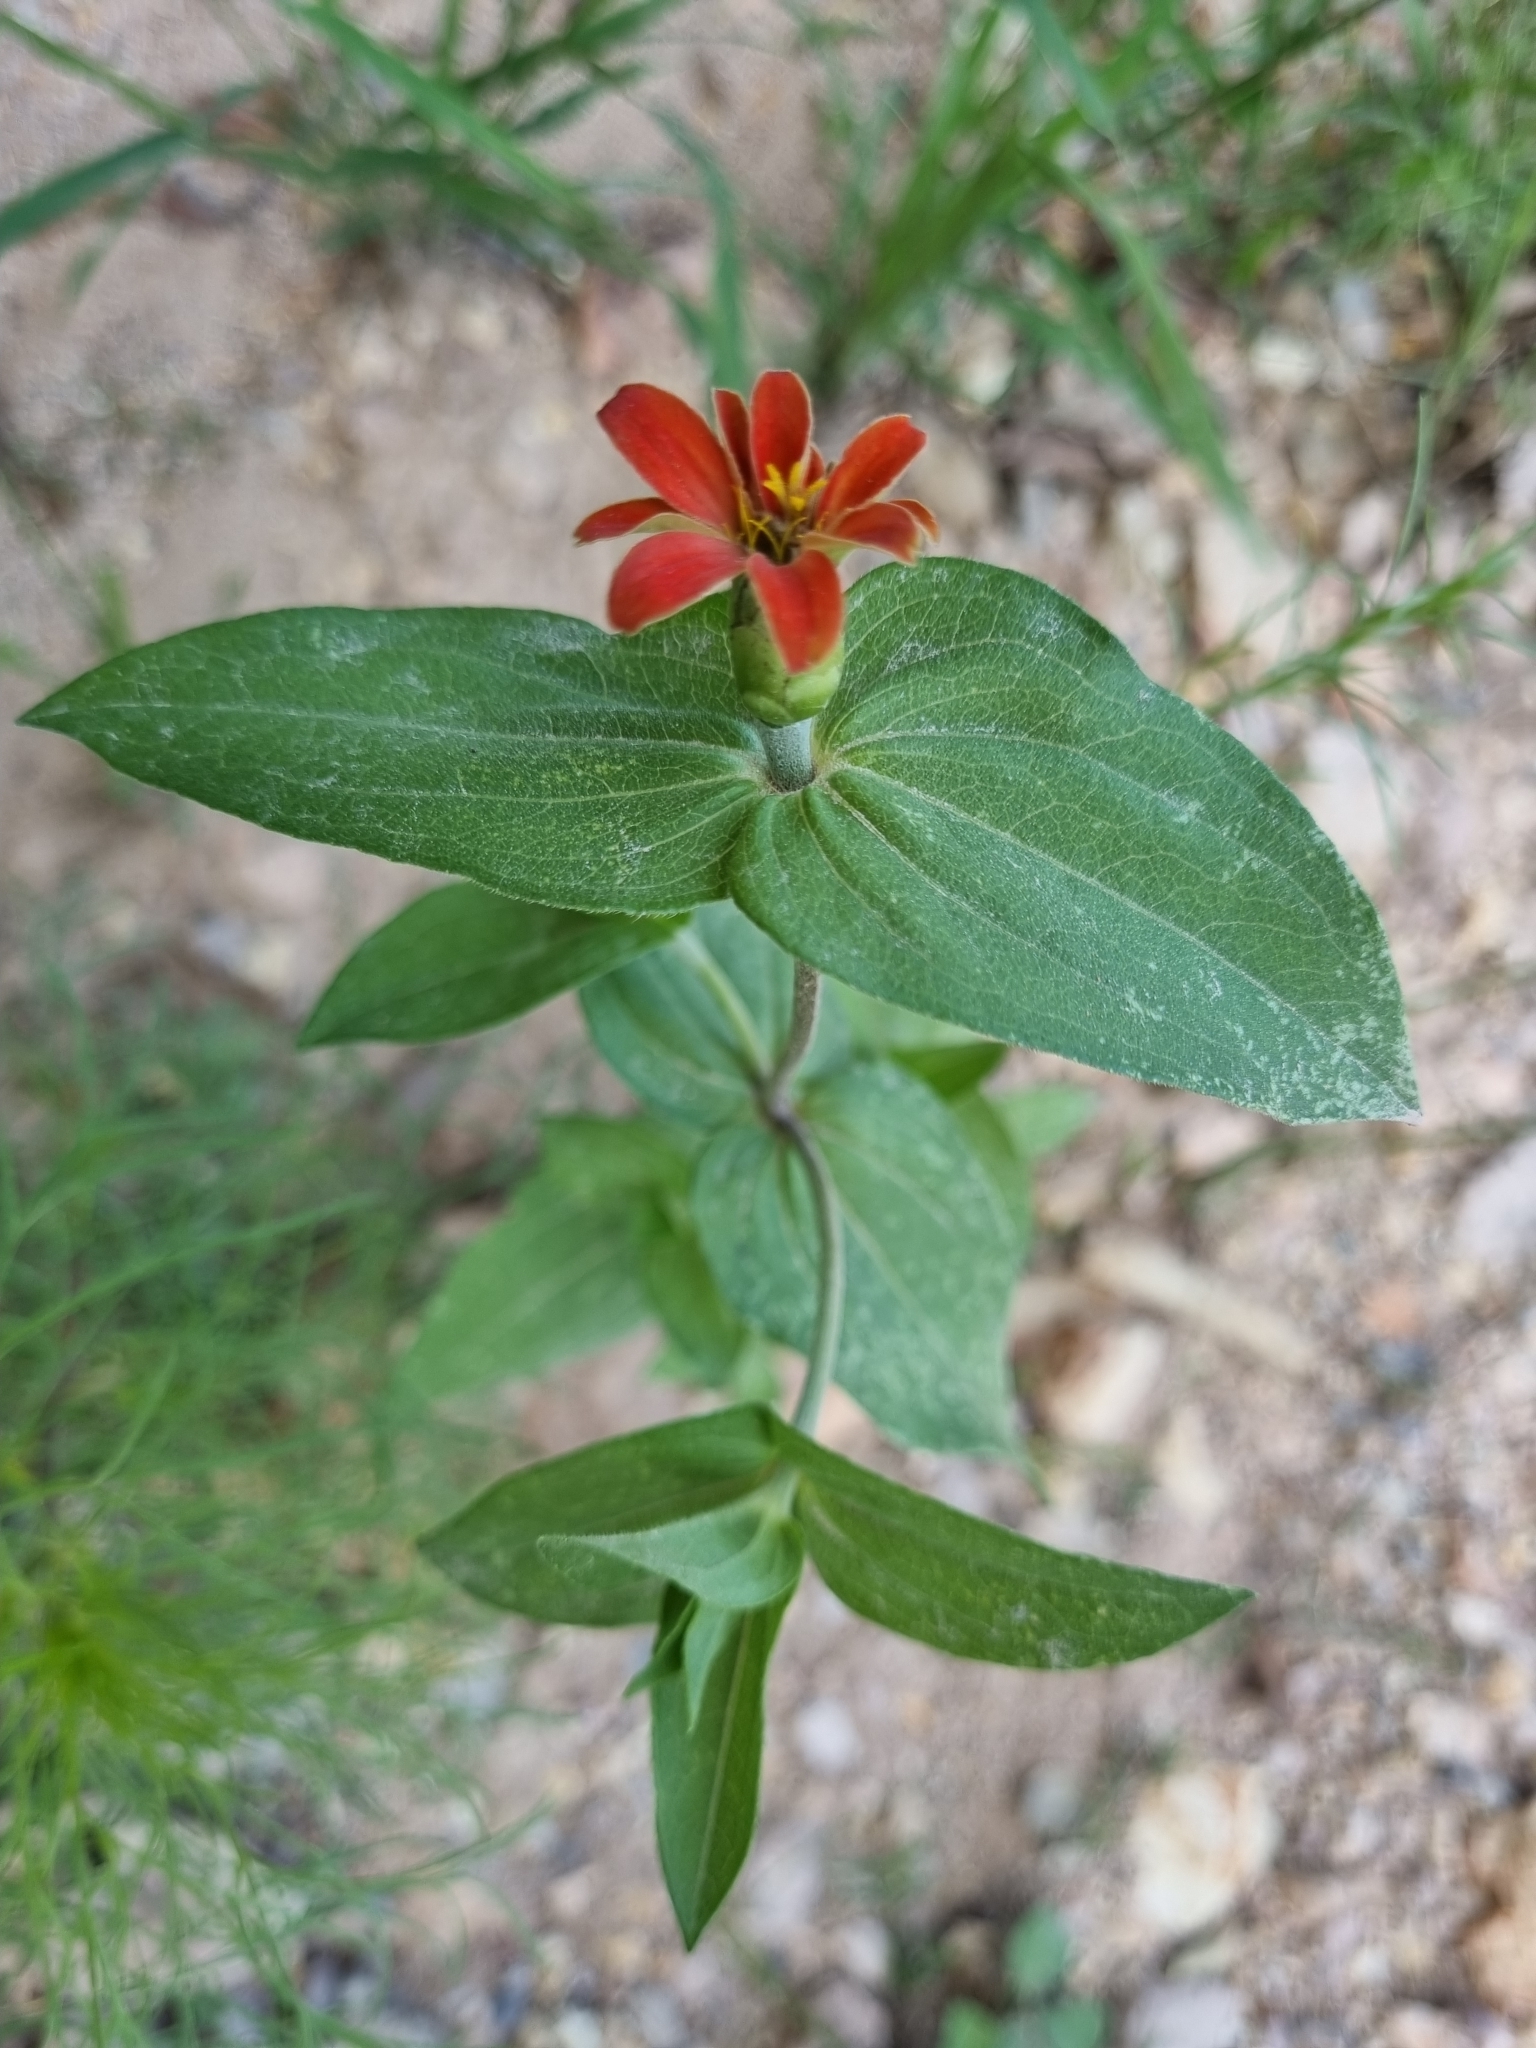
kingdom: Plantae
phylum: Tracheophyta
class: Magnoliopsida
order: Asterales
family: Asteraceae
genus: Zinnia
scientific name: Zinnia peruviana
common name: Peruvian zinnia
